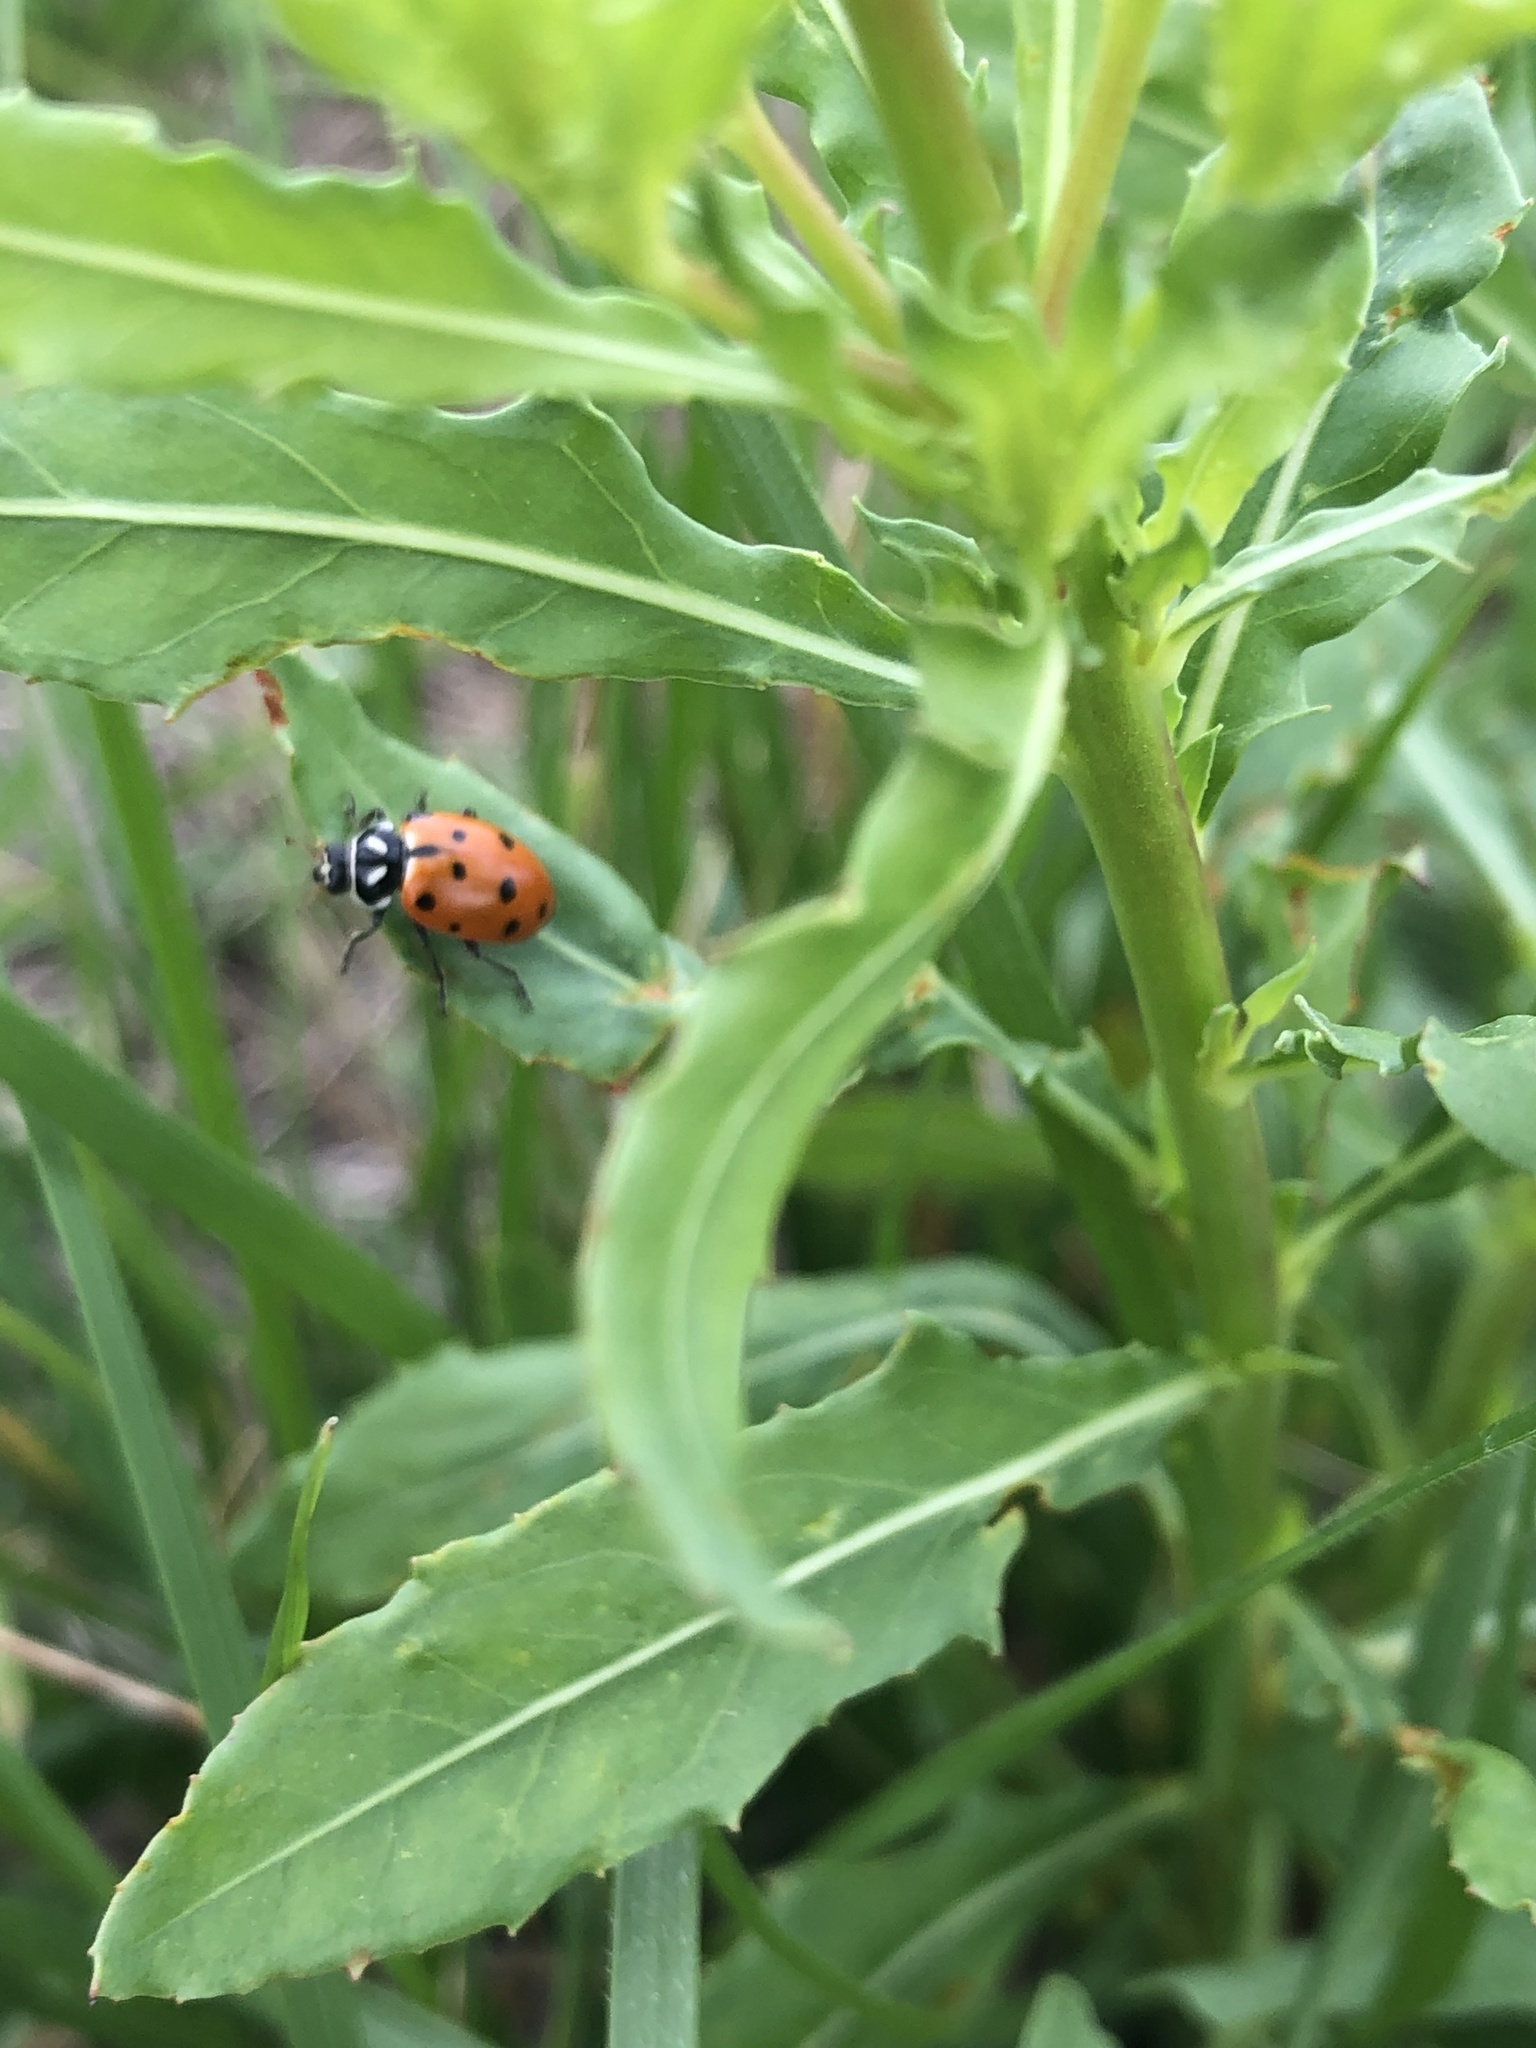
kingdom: Animalia
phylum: Arthropoda
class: Insecta
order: Coleoptera
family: Coccinellidae
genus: Hippodamia
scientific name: Hippodamia convergens
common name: Convergent lady beetle
